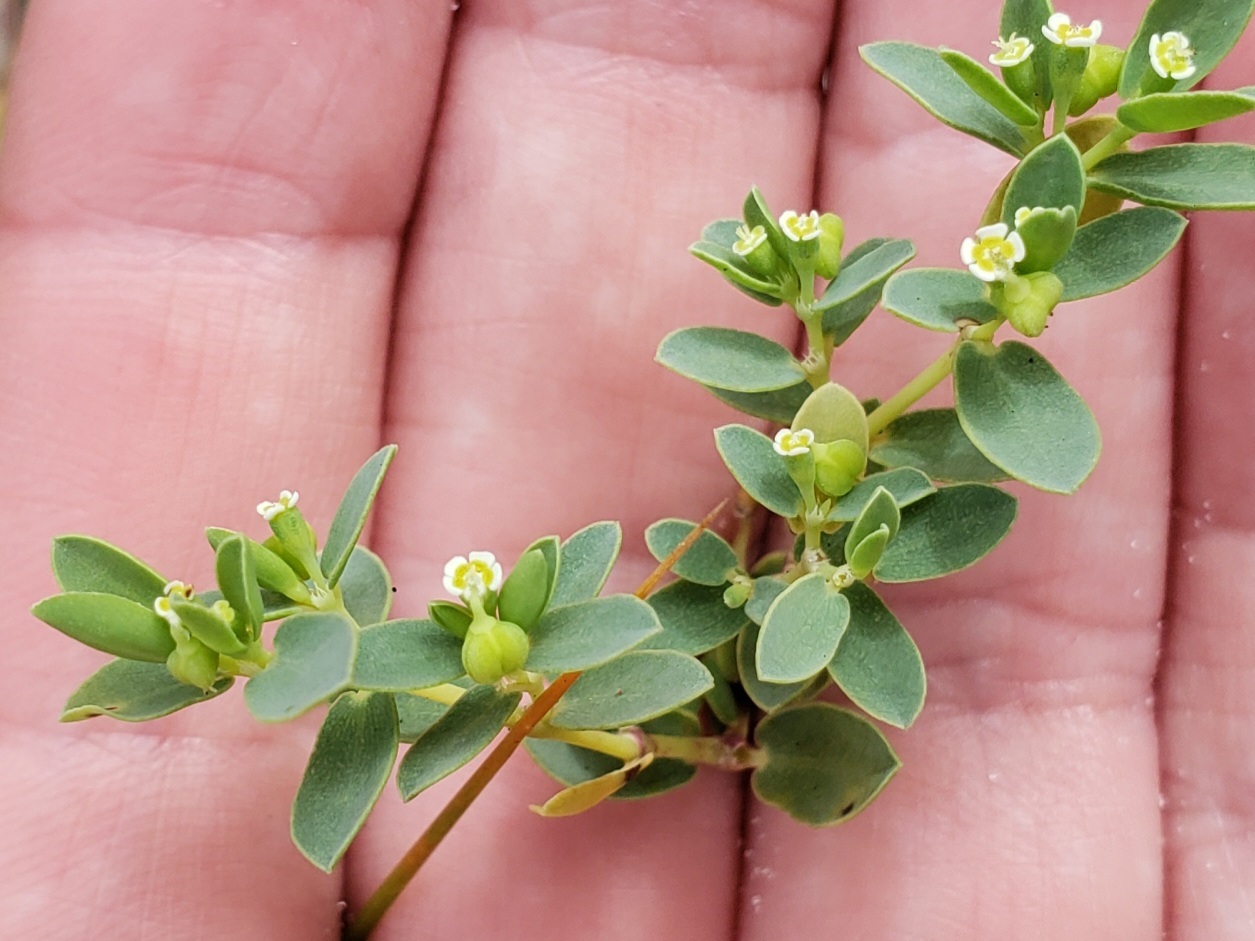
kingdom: Plantae
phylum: Tracheophyta
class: Magnoliopsida
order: Malpighiales
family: Euphorbiaceae
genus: Euphorbia
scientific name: Euphorbia mesembryanthemifolia
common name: Coastal beach sandmat
